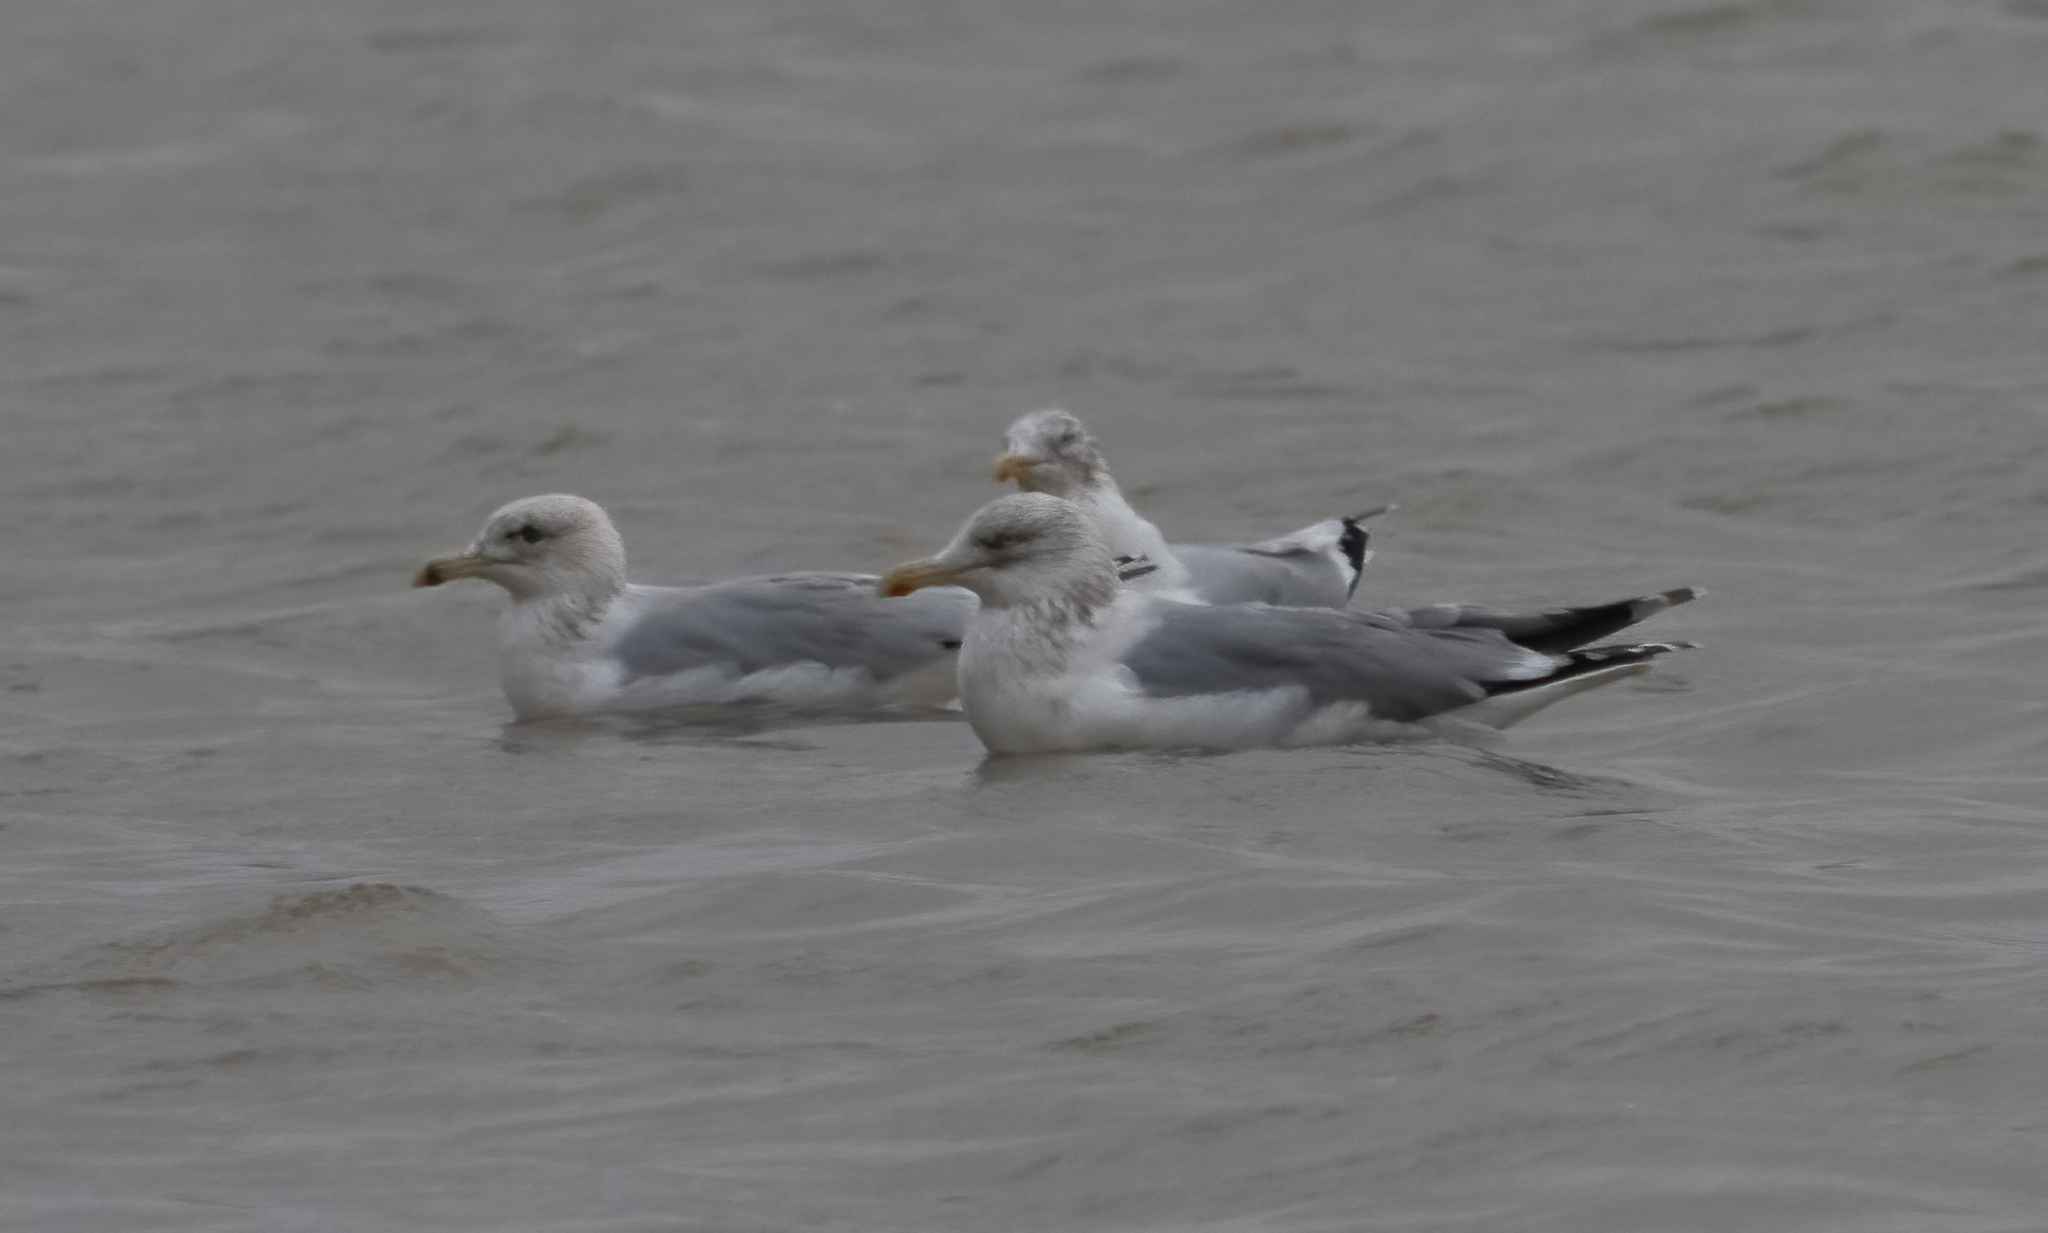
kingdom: Animalia
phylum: Chordata
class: Aves
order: Charadriiformes
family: Laridae
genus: Larus
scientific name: Larus argentatus
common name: Herring gull
